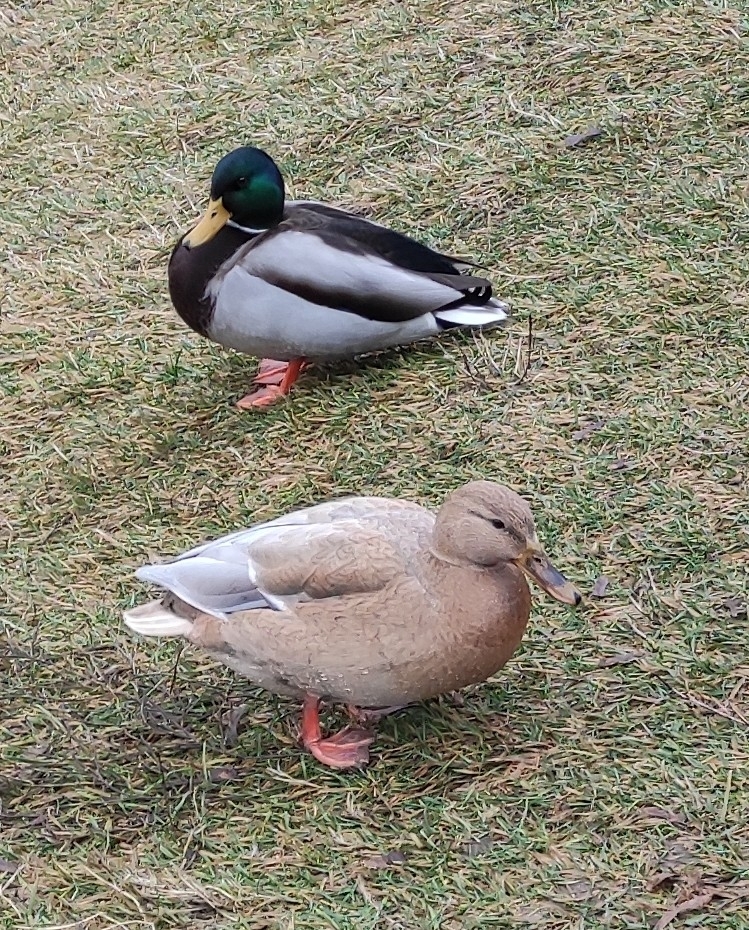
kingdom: Animalia
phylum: Chordata
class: Aves
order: Anseriformes
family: Anatidae
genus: Anas
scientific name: Anas platyrhynchos
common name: Mallard
